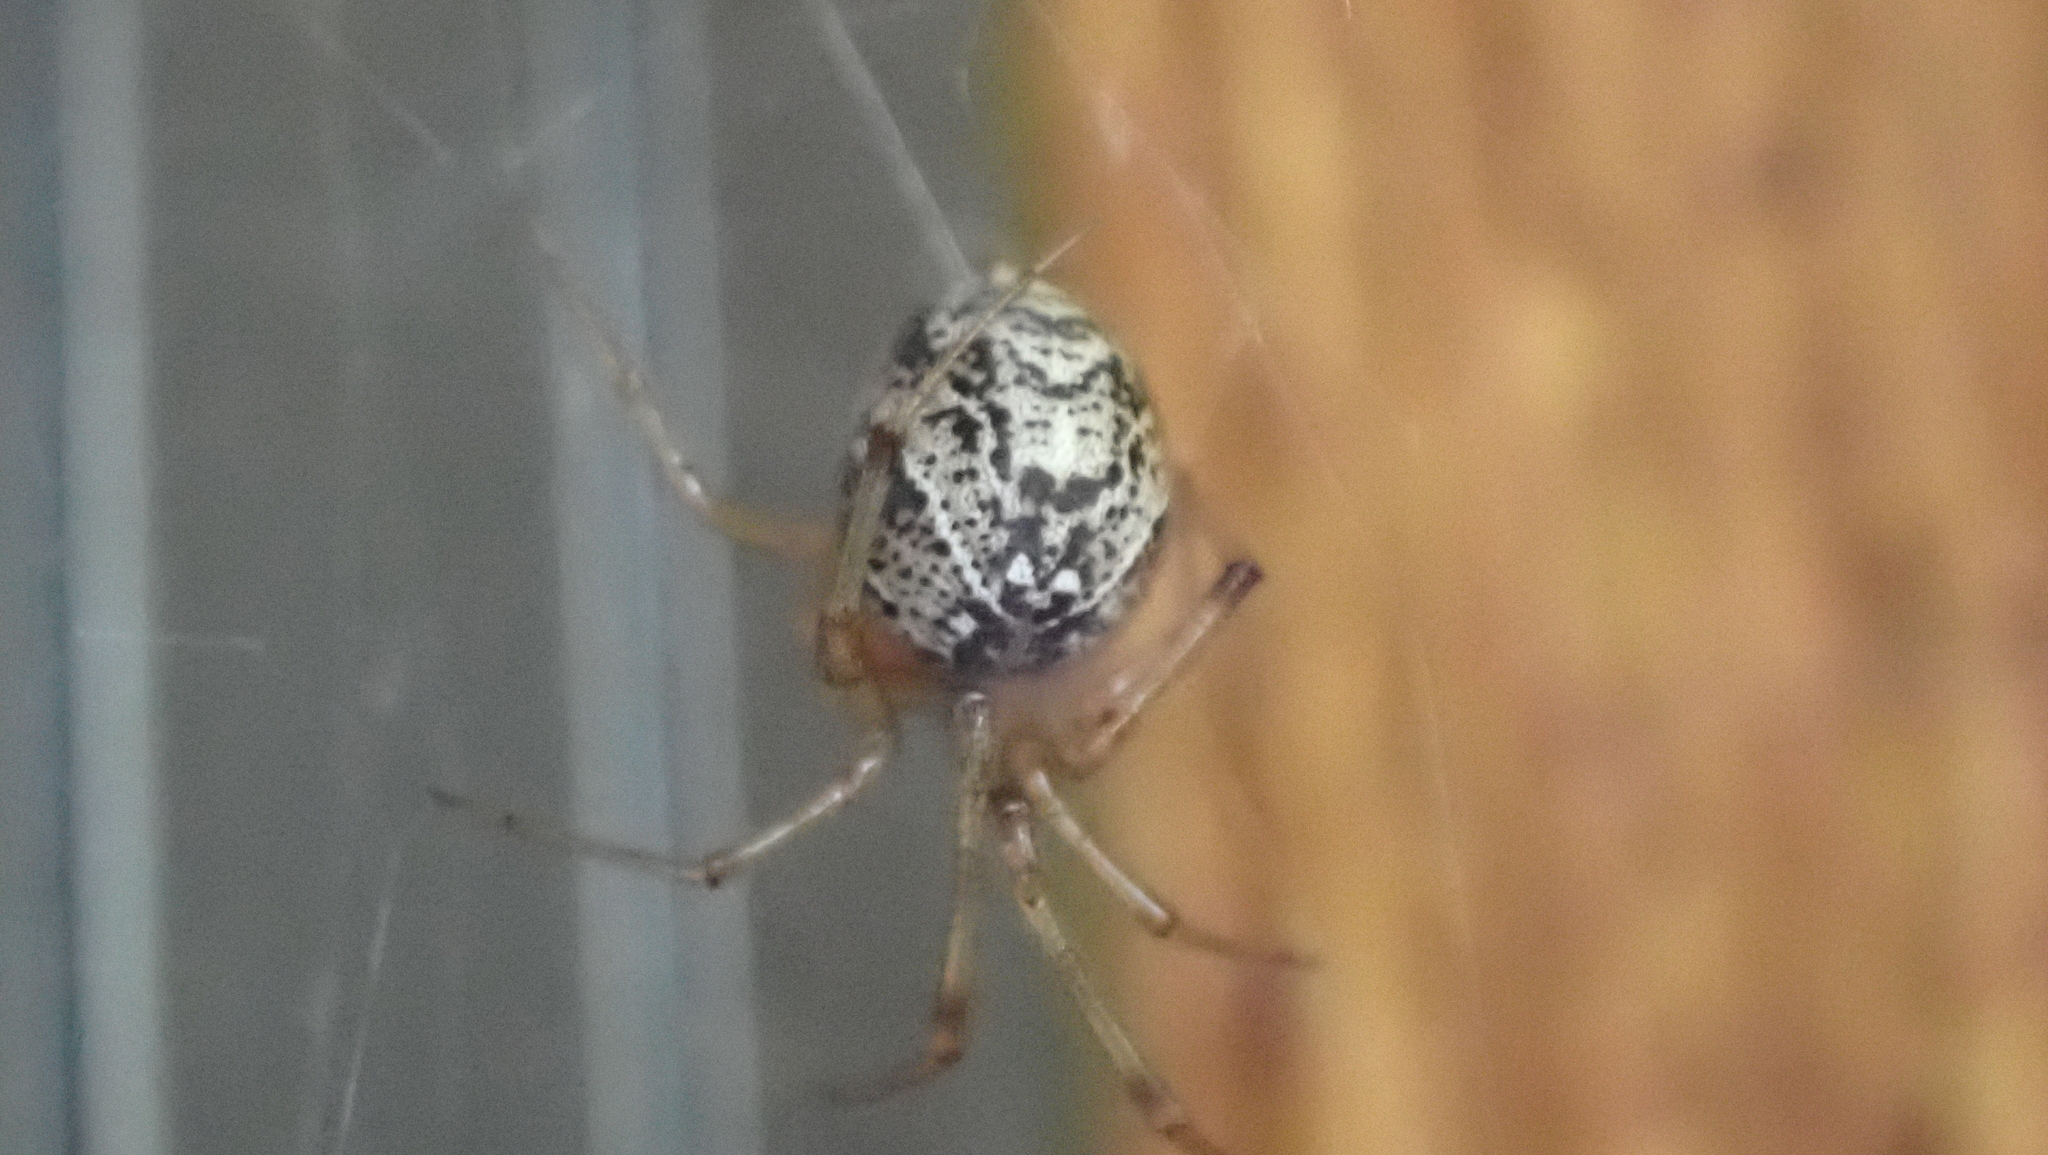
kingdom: Animalia
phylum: Arthropoda
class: Arachnida
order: Araneae
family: Theridiidae
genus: Parasteatoda
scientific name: Parasteatoda tepidariorum
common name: Common house spider
